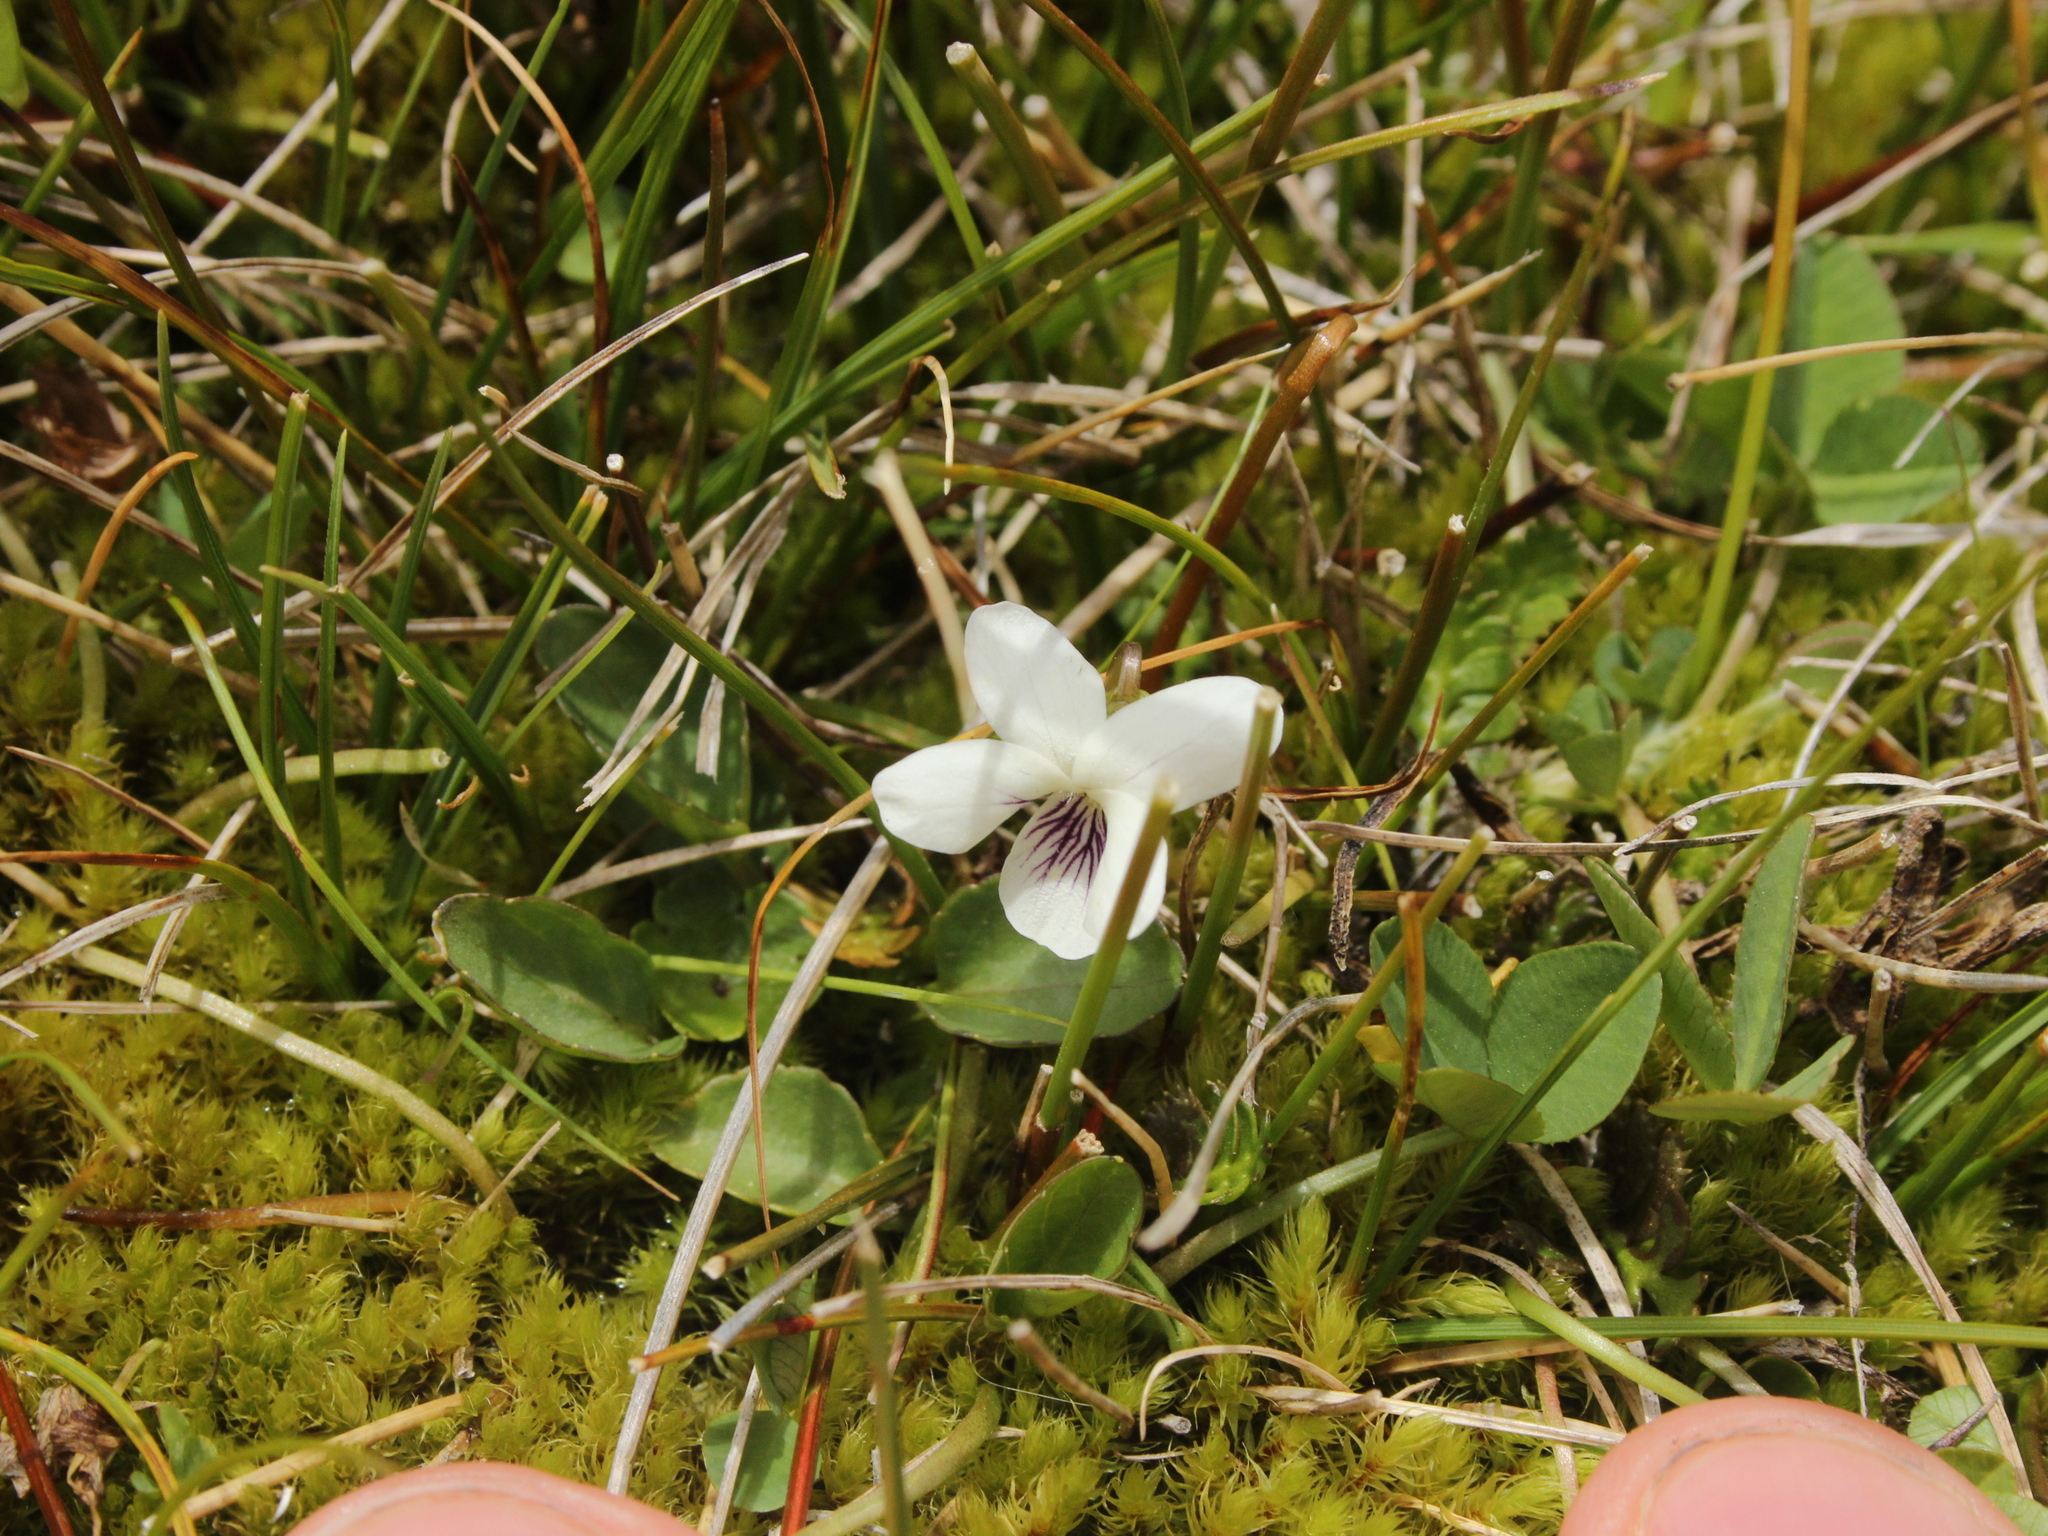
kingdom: Plantae
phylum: Tracheophyta
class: Magnoliopsida
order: Malpighiales
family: Violaceae
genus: Viola
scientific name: Viola cunninghamii
